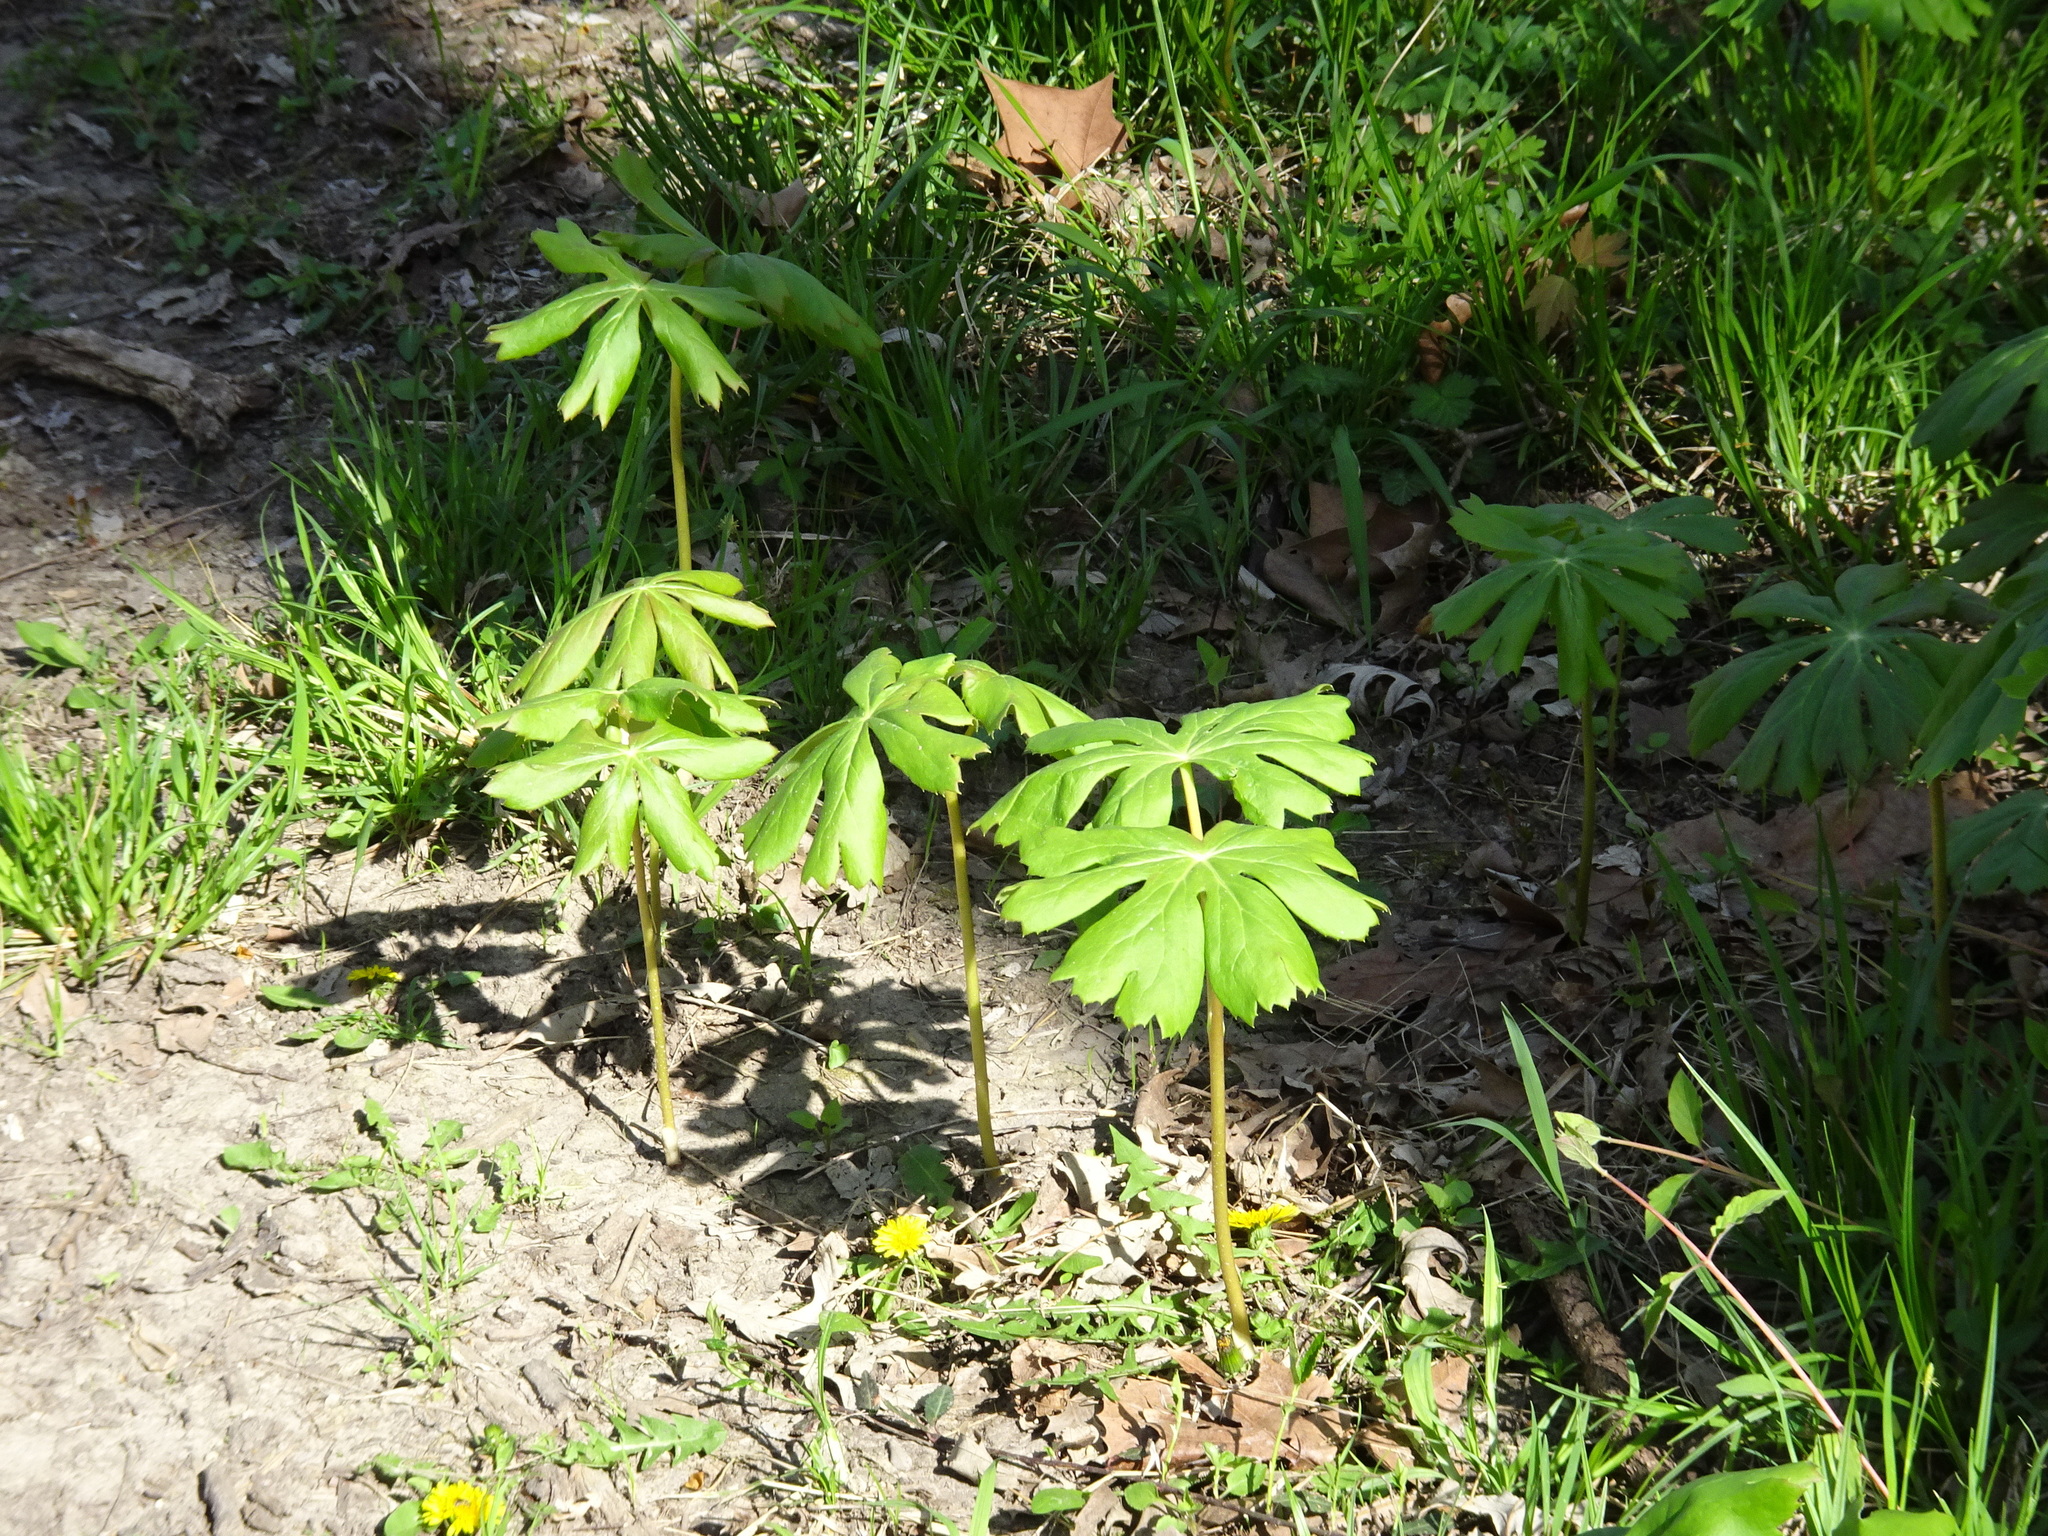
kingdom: Plantae
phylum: Tracheophyta
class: Magnoliopsida
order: Ranunculales
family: Berberidaceae
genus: Podophyllum
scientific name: Podophyllum peltatum
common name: Wild mandrake
